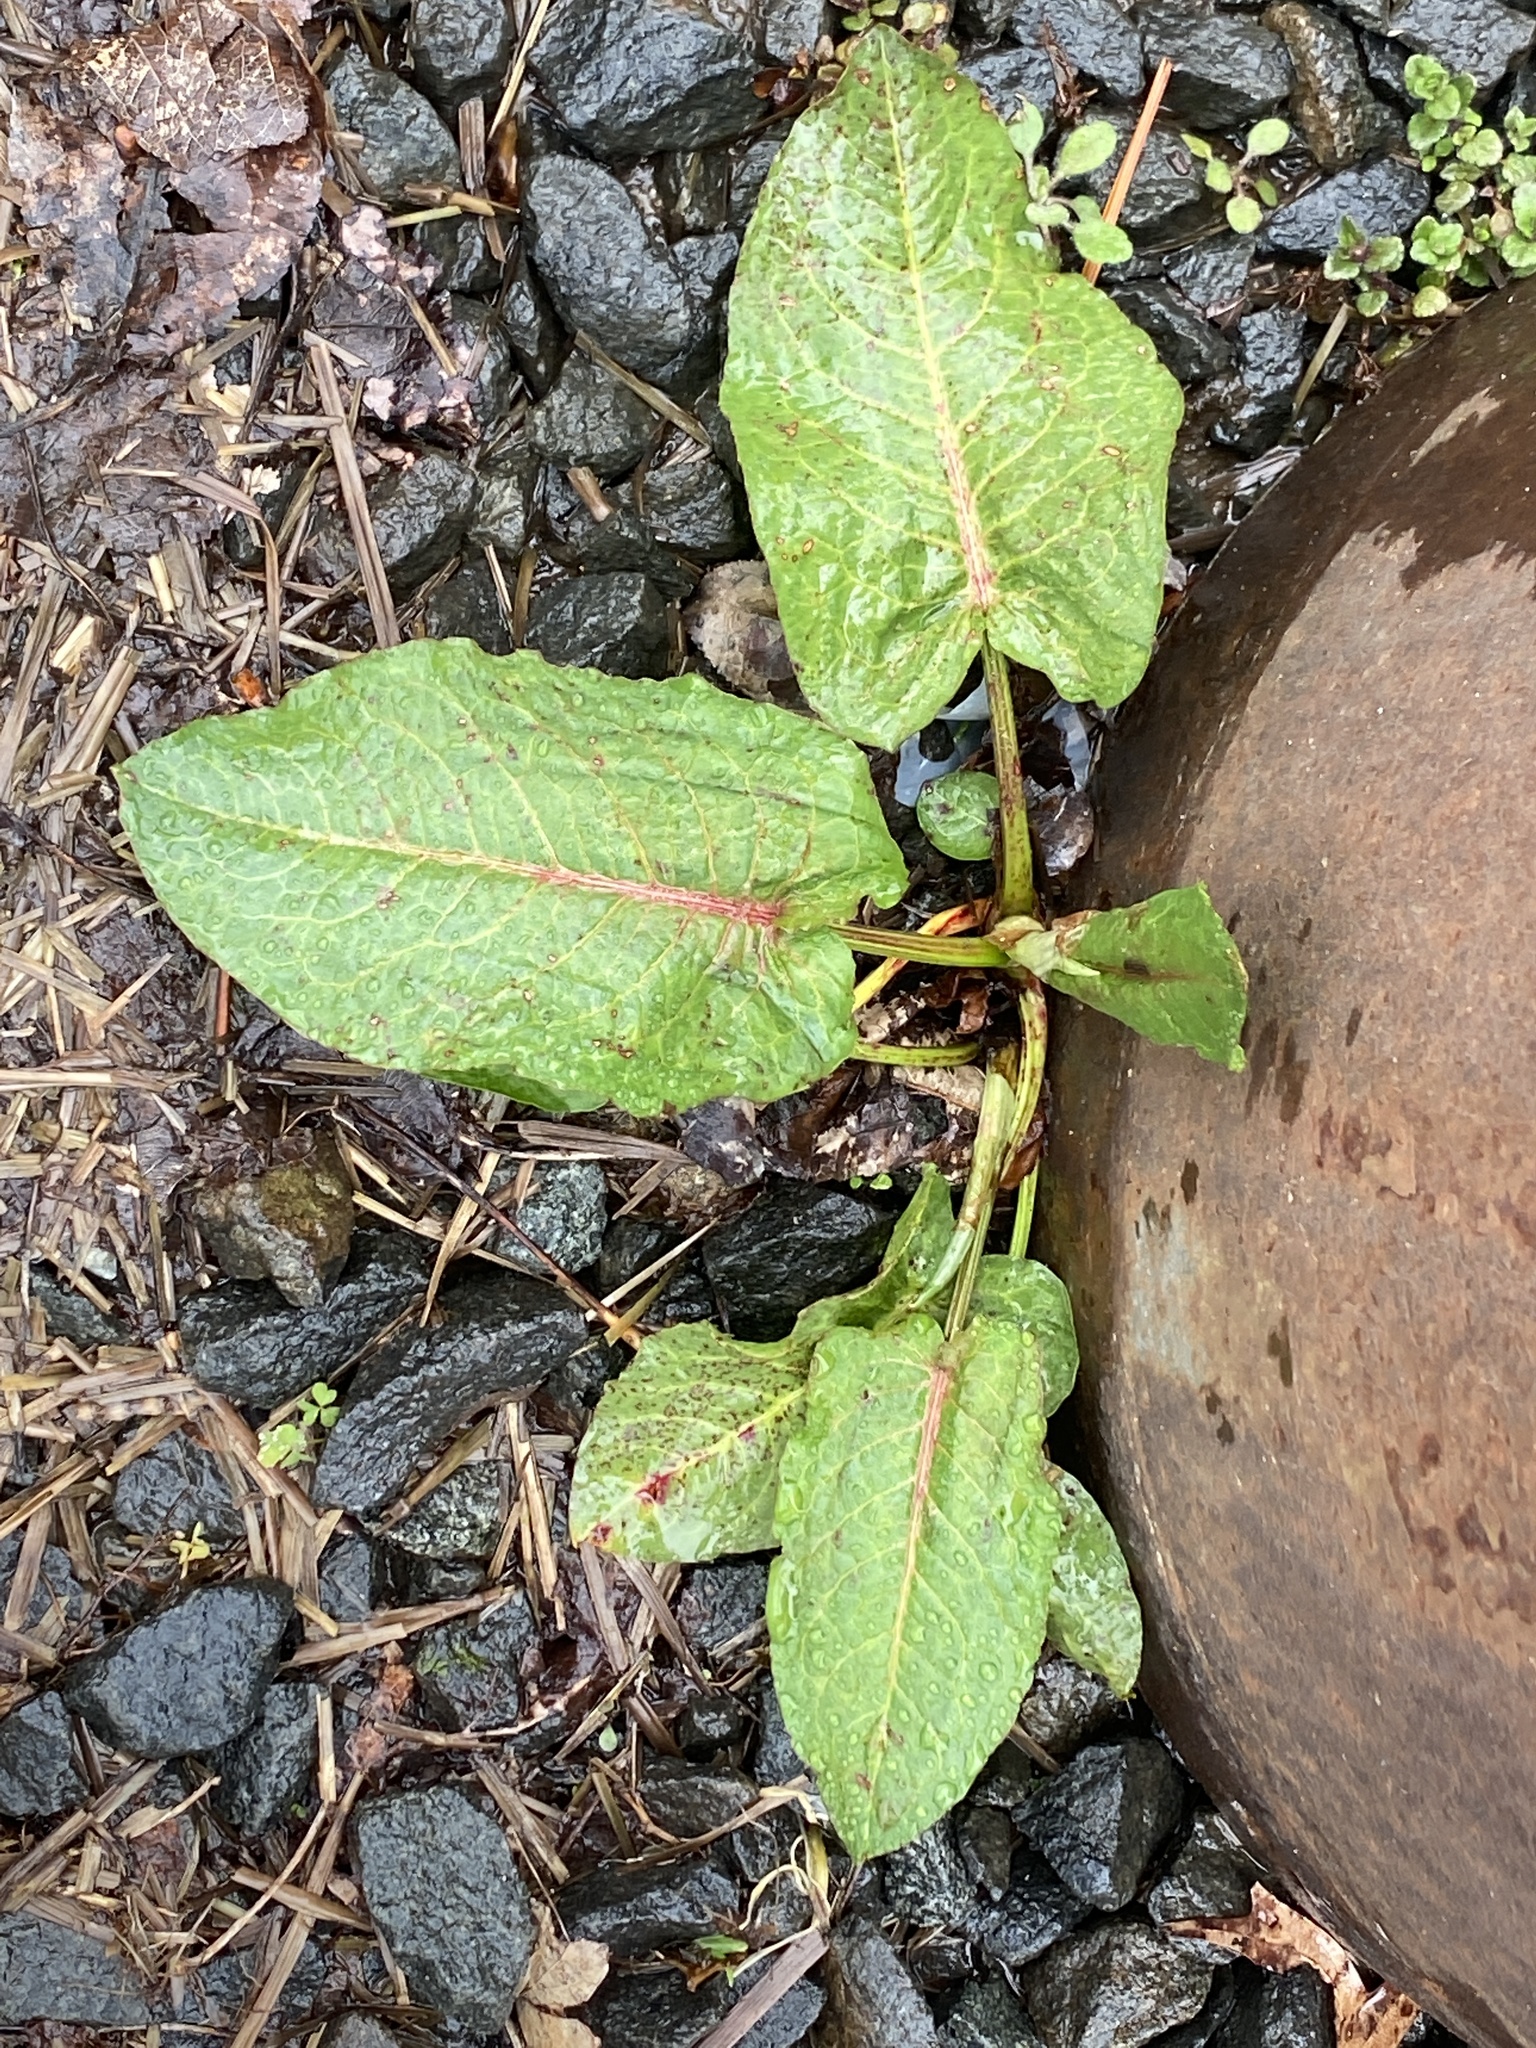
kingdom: Plantae
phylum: Tracheophyta
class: Magnoliopsida
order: Caryophyllales
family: Polygonaceae
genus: Rumex
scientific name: Rumex obtusifolius
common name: Bitter dock
